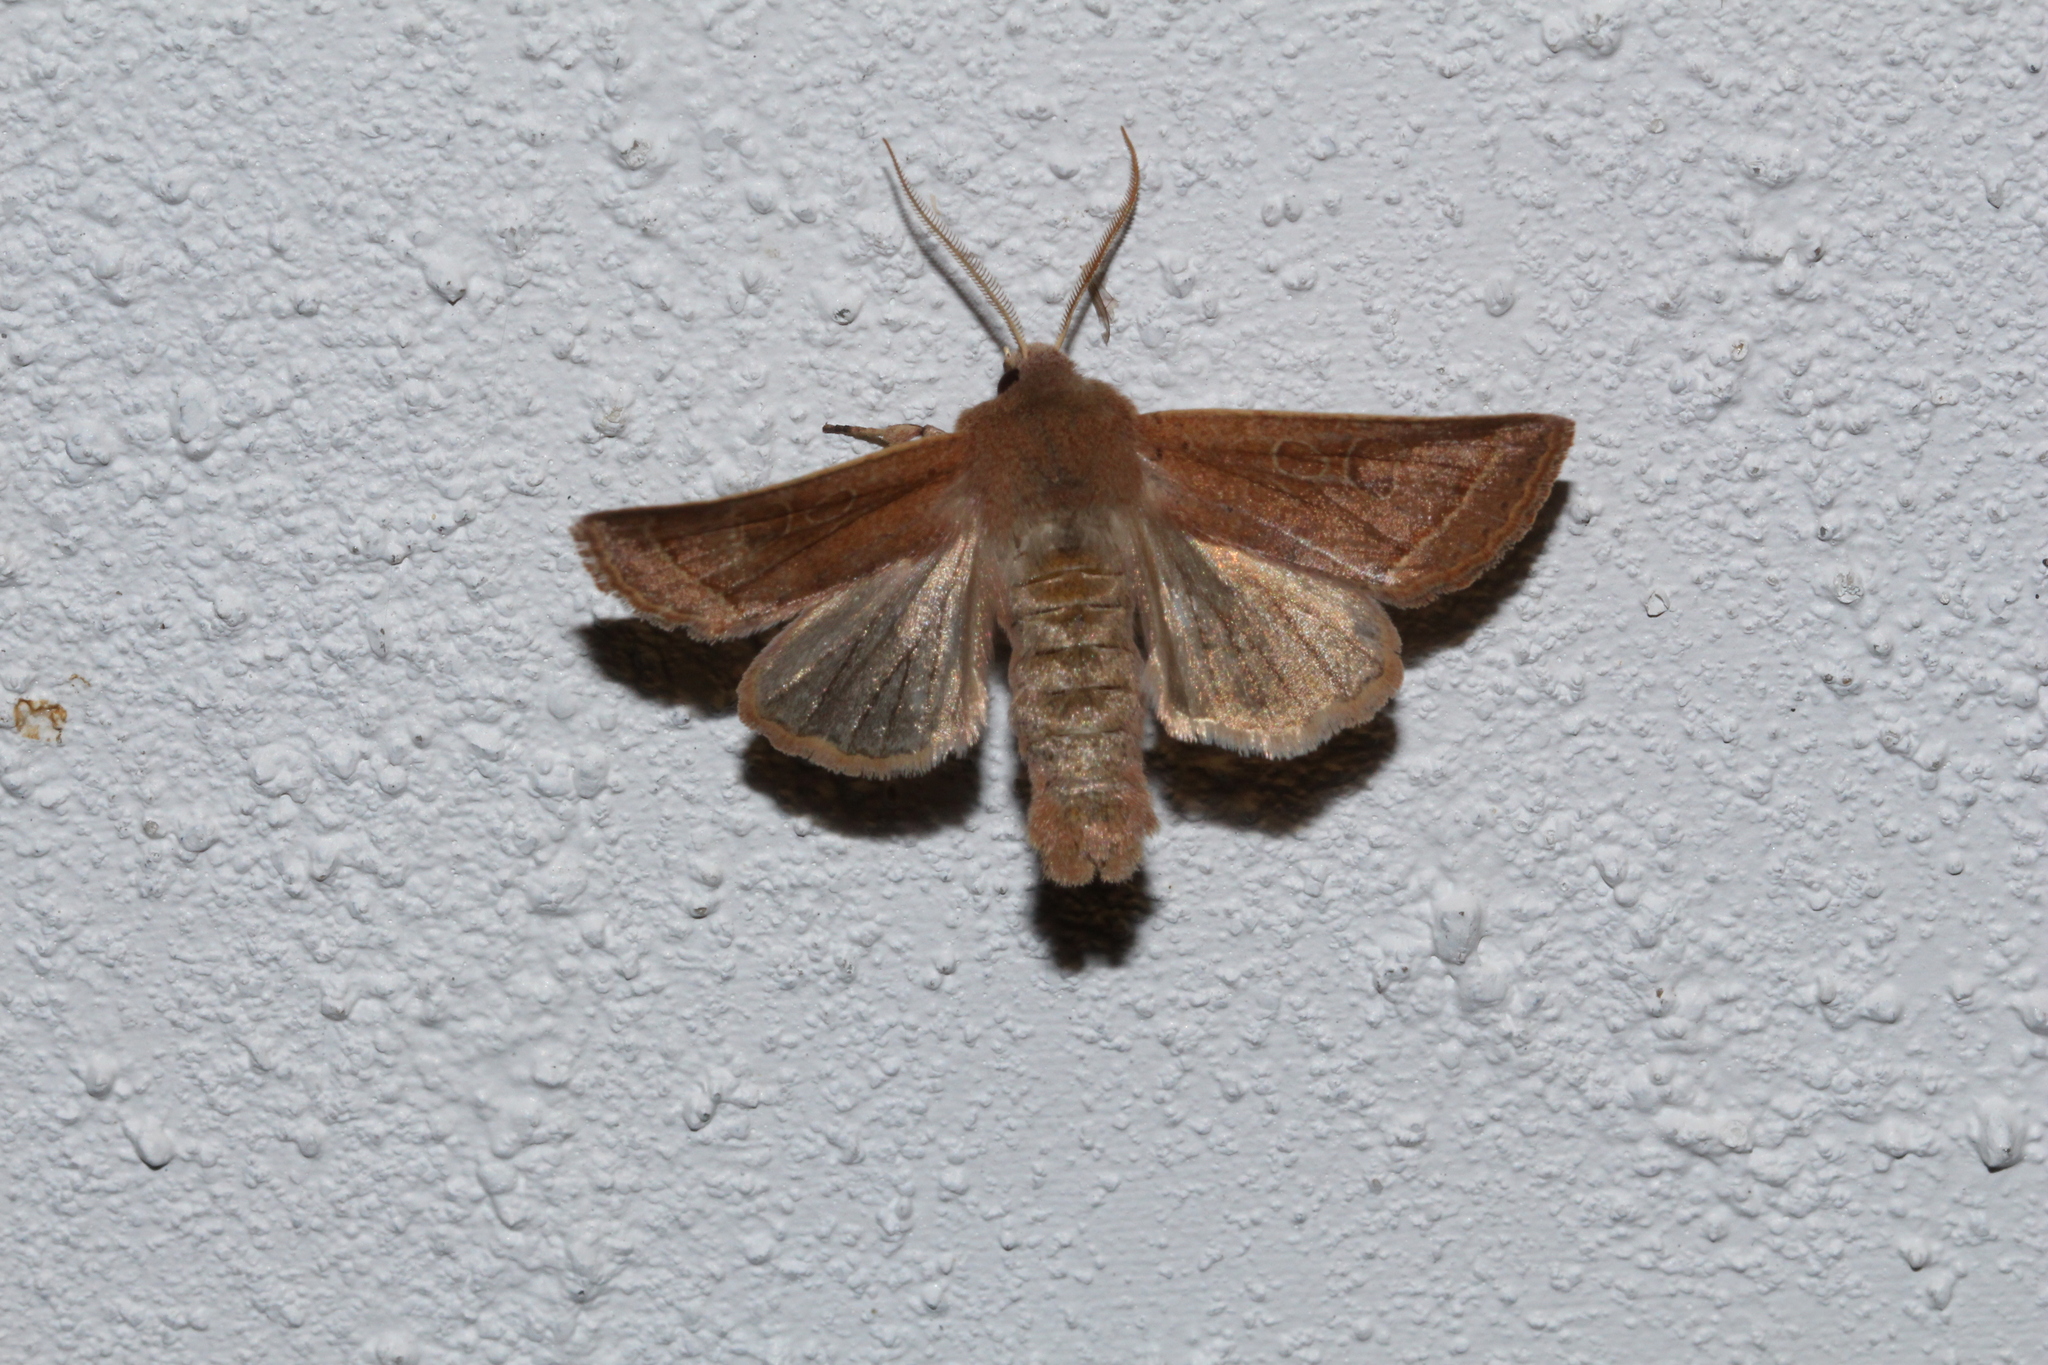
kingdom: Animalia
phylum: Arthropoda
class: Insecta
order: Lepidoptera
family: Noctuidae
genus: Orthosia
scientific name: Orthosia cerasi
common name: Common quaker
